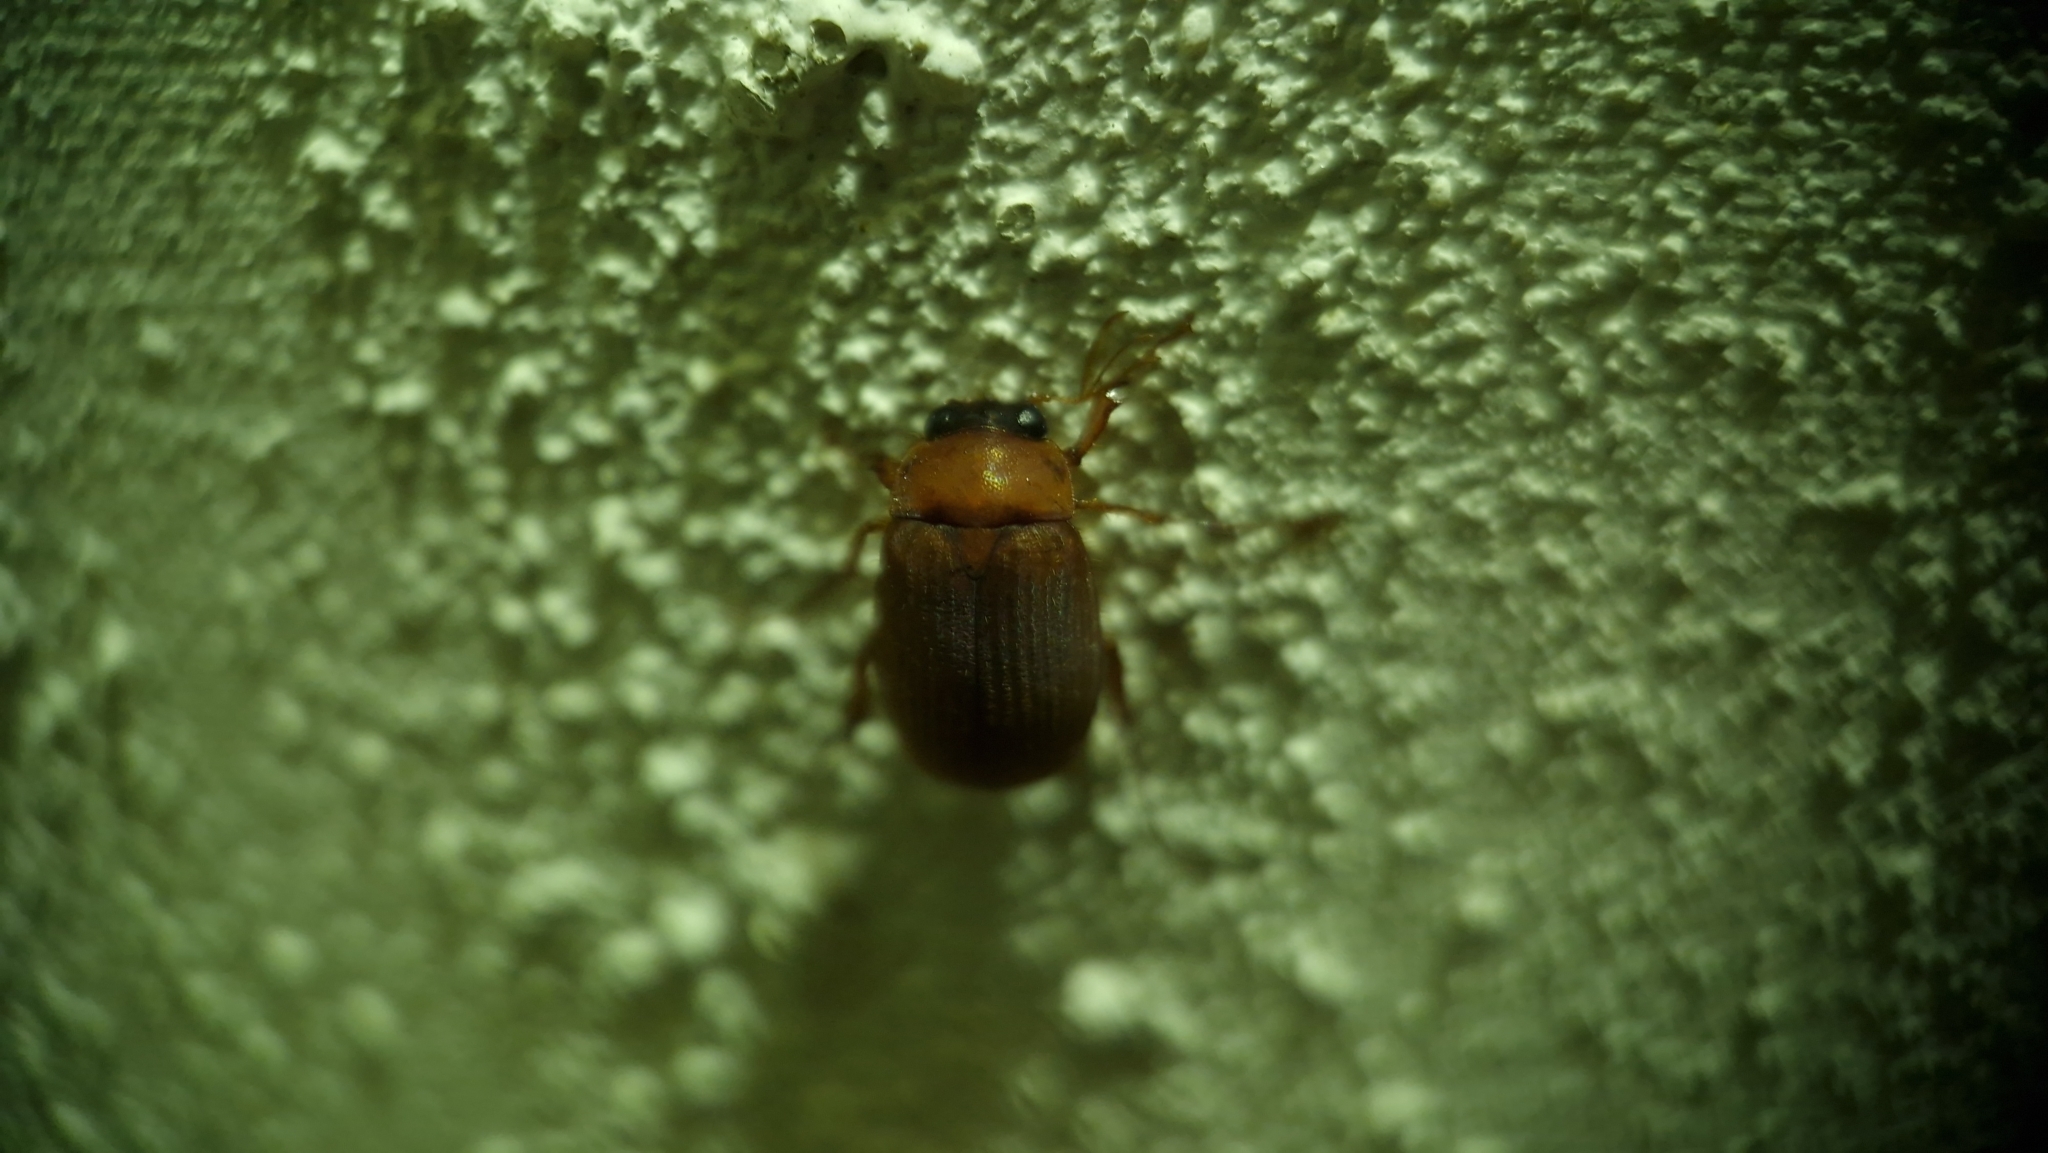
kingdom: Animalia
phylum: Arthropoda
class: Insecta
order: Coleoptera
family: Scarabaeidae
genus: Serica
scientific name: Serica brunnea
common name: Brown chafer
